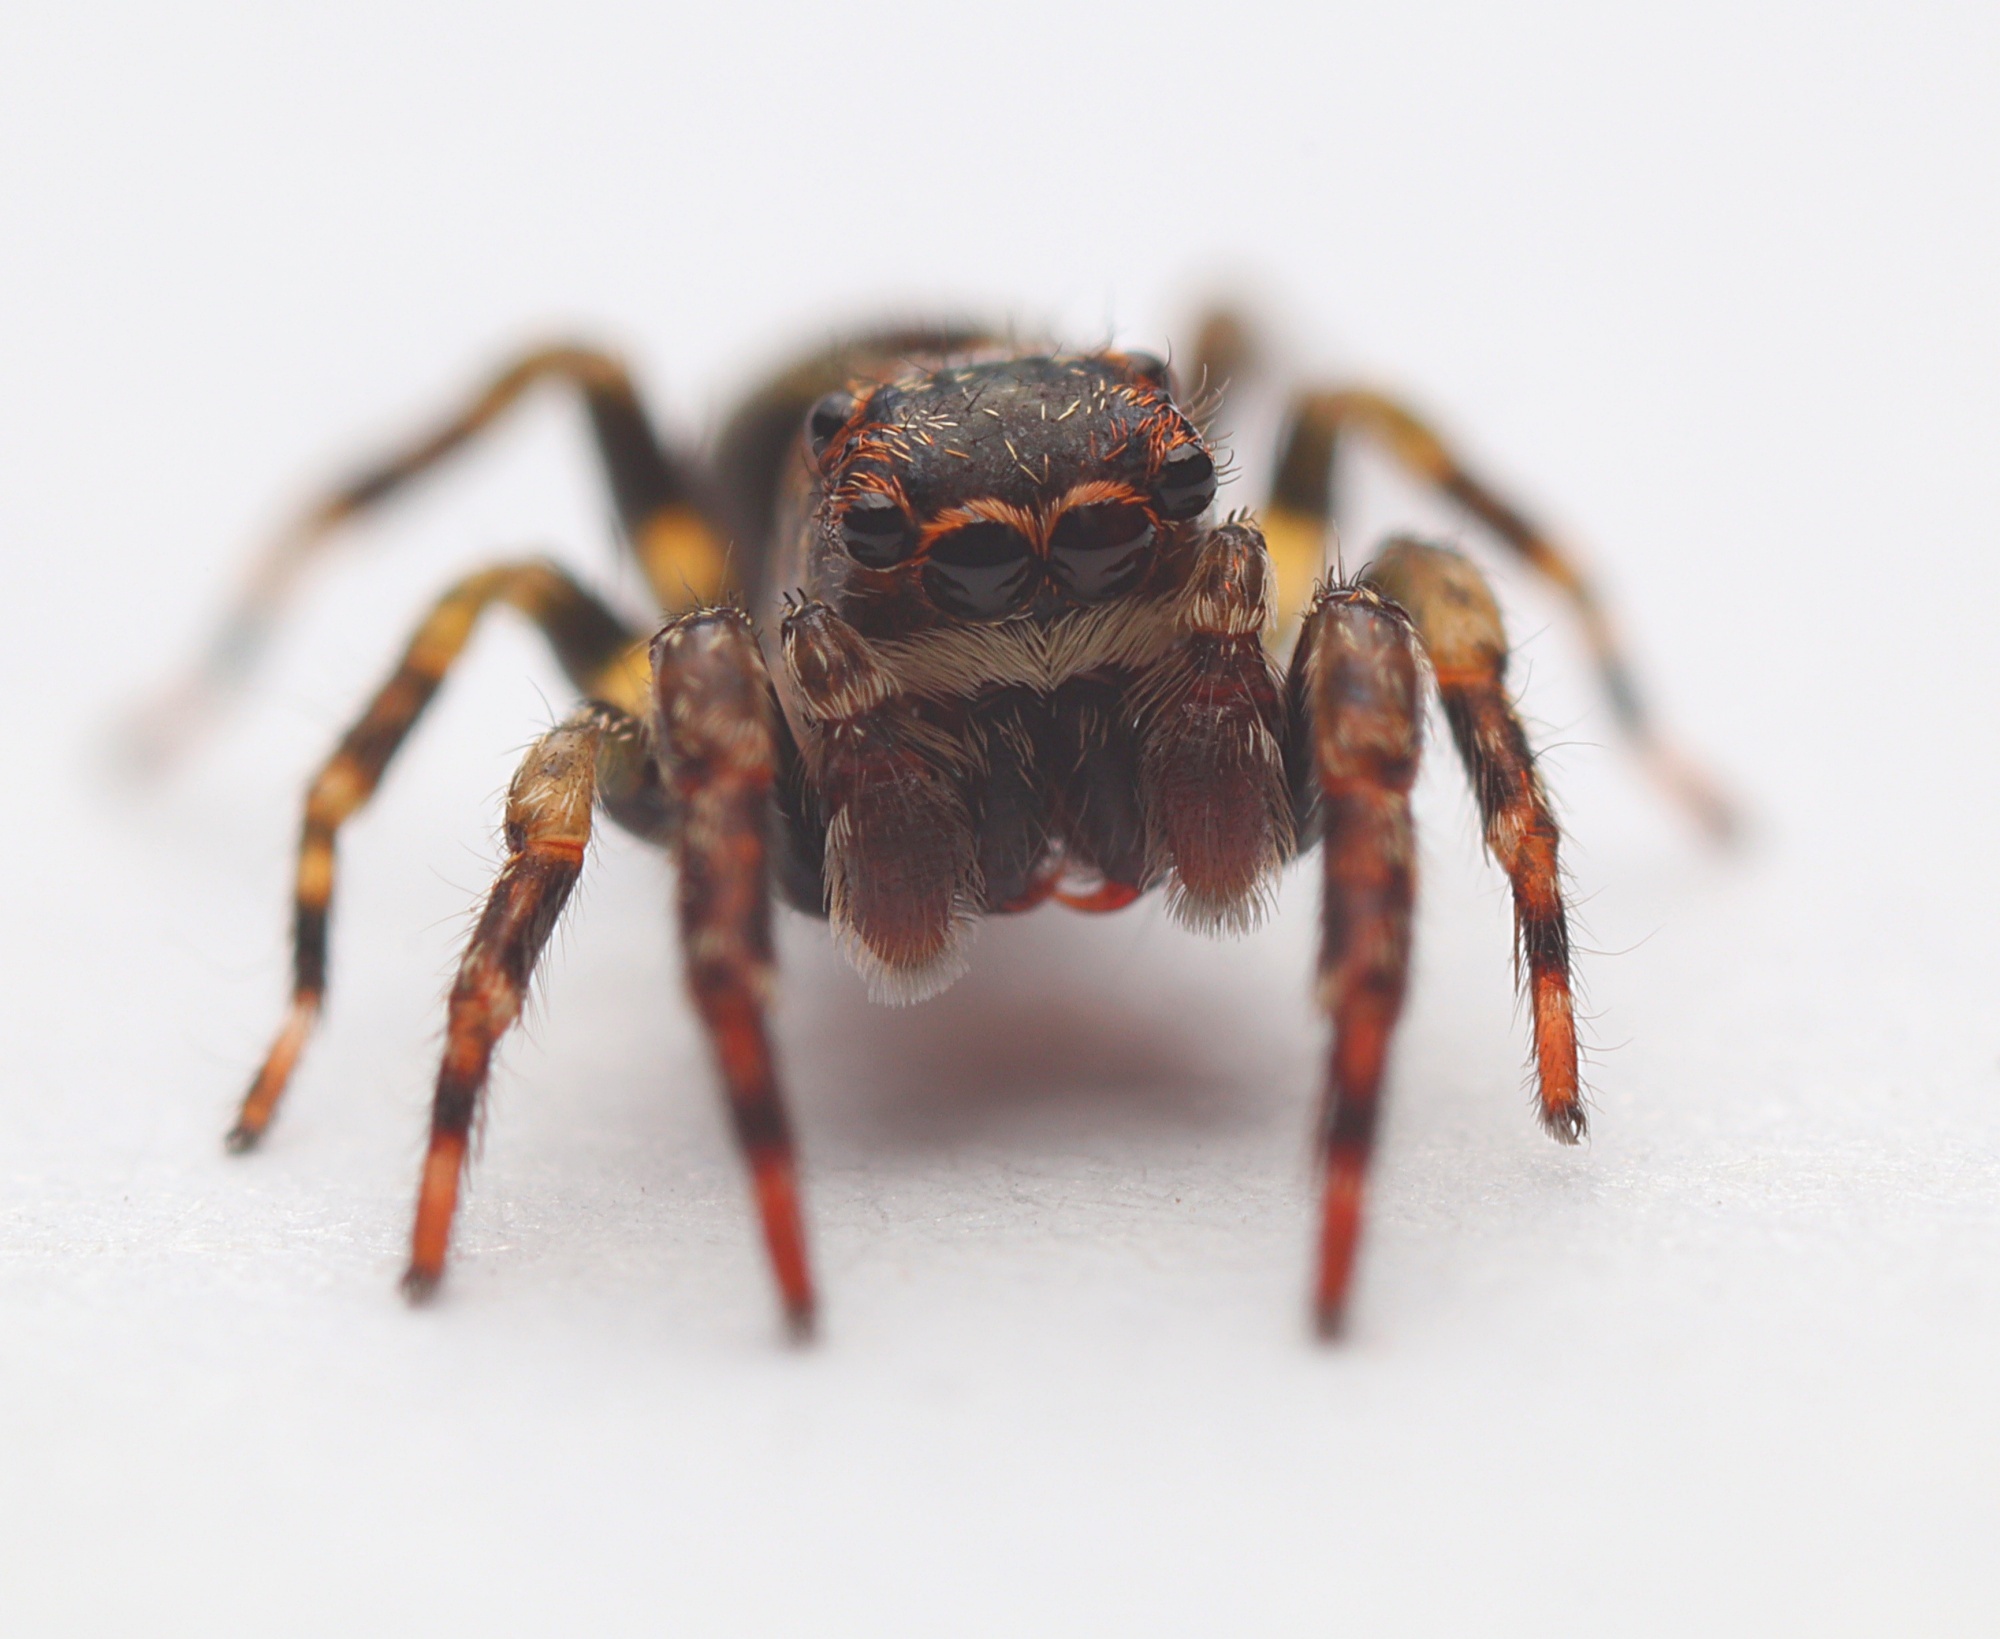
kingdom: Animalia
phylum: Arthropoda
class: Arachnida
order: Araneae
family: Salticidae
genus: Hinewaia
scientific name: Hinewaia embolica
